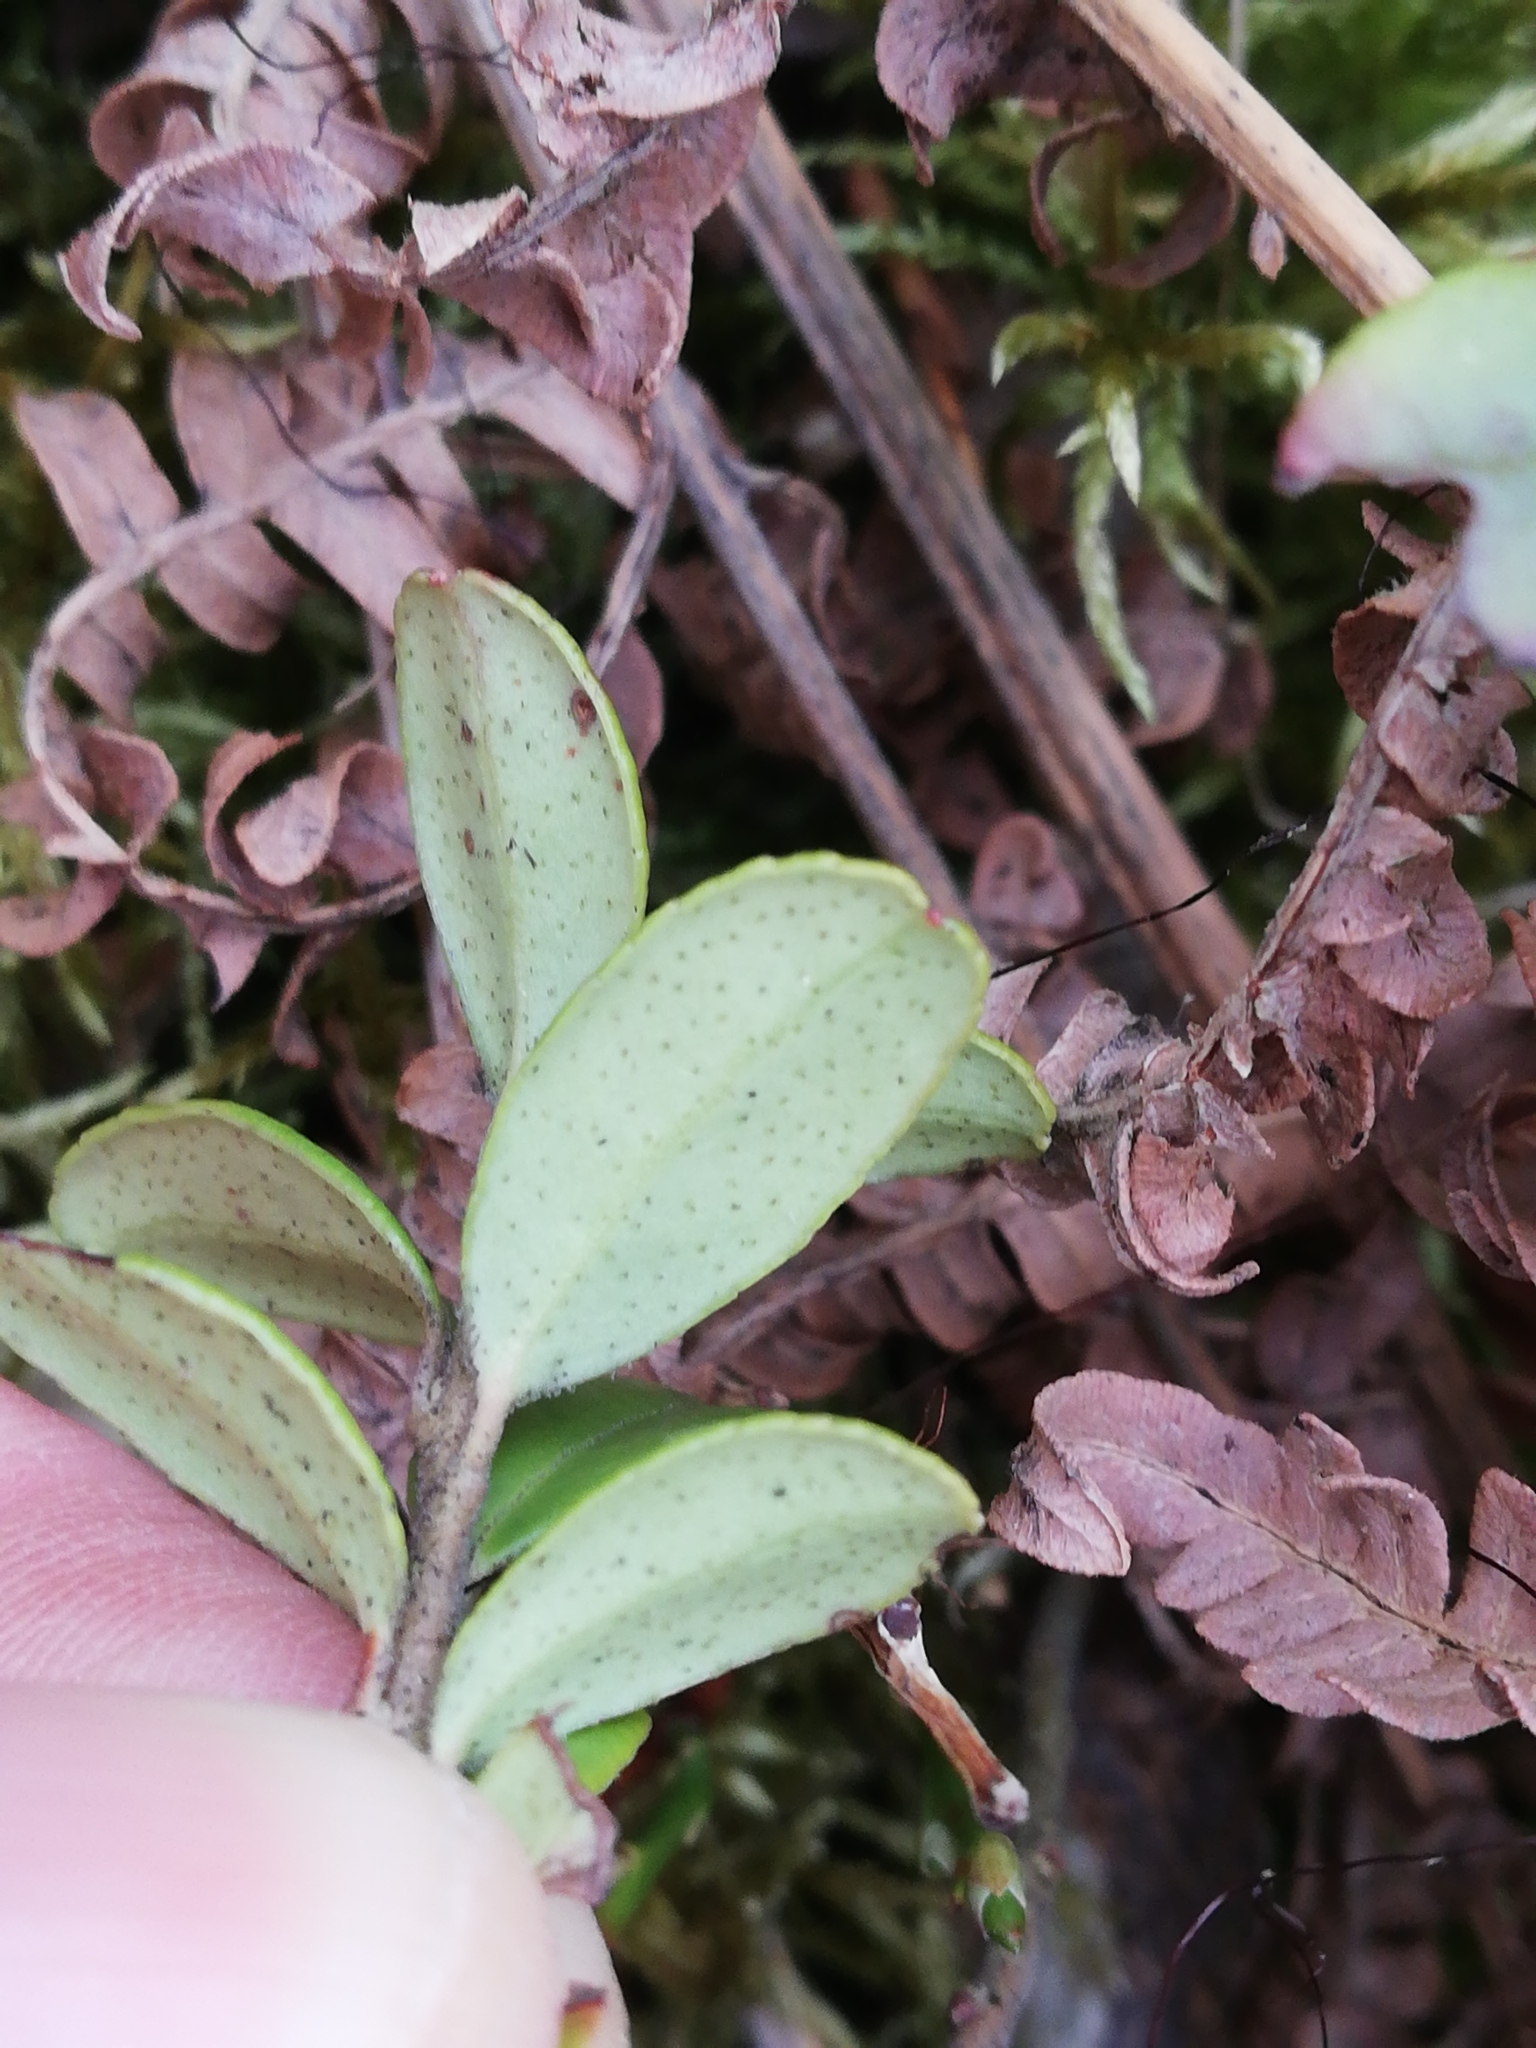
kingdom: Plantae
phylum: Tracheophyta
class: Magnoliopsida
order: Ericales
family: Ericaceae
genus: Vaccinium
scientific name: Vaccinium vitis-idaea
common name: Cowberry
